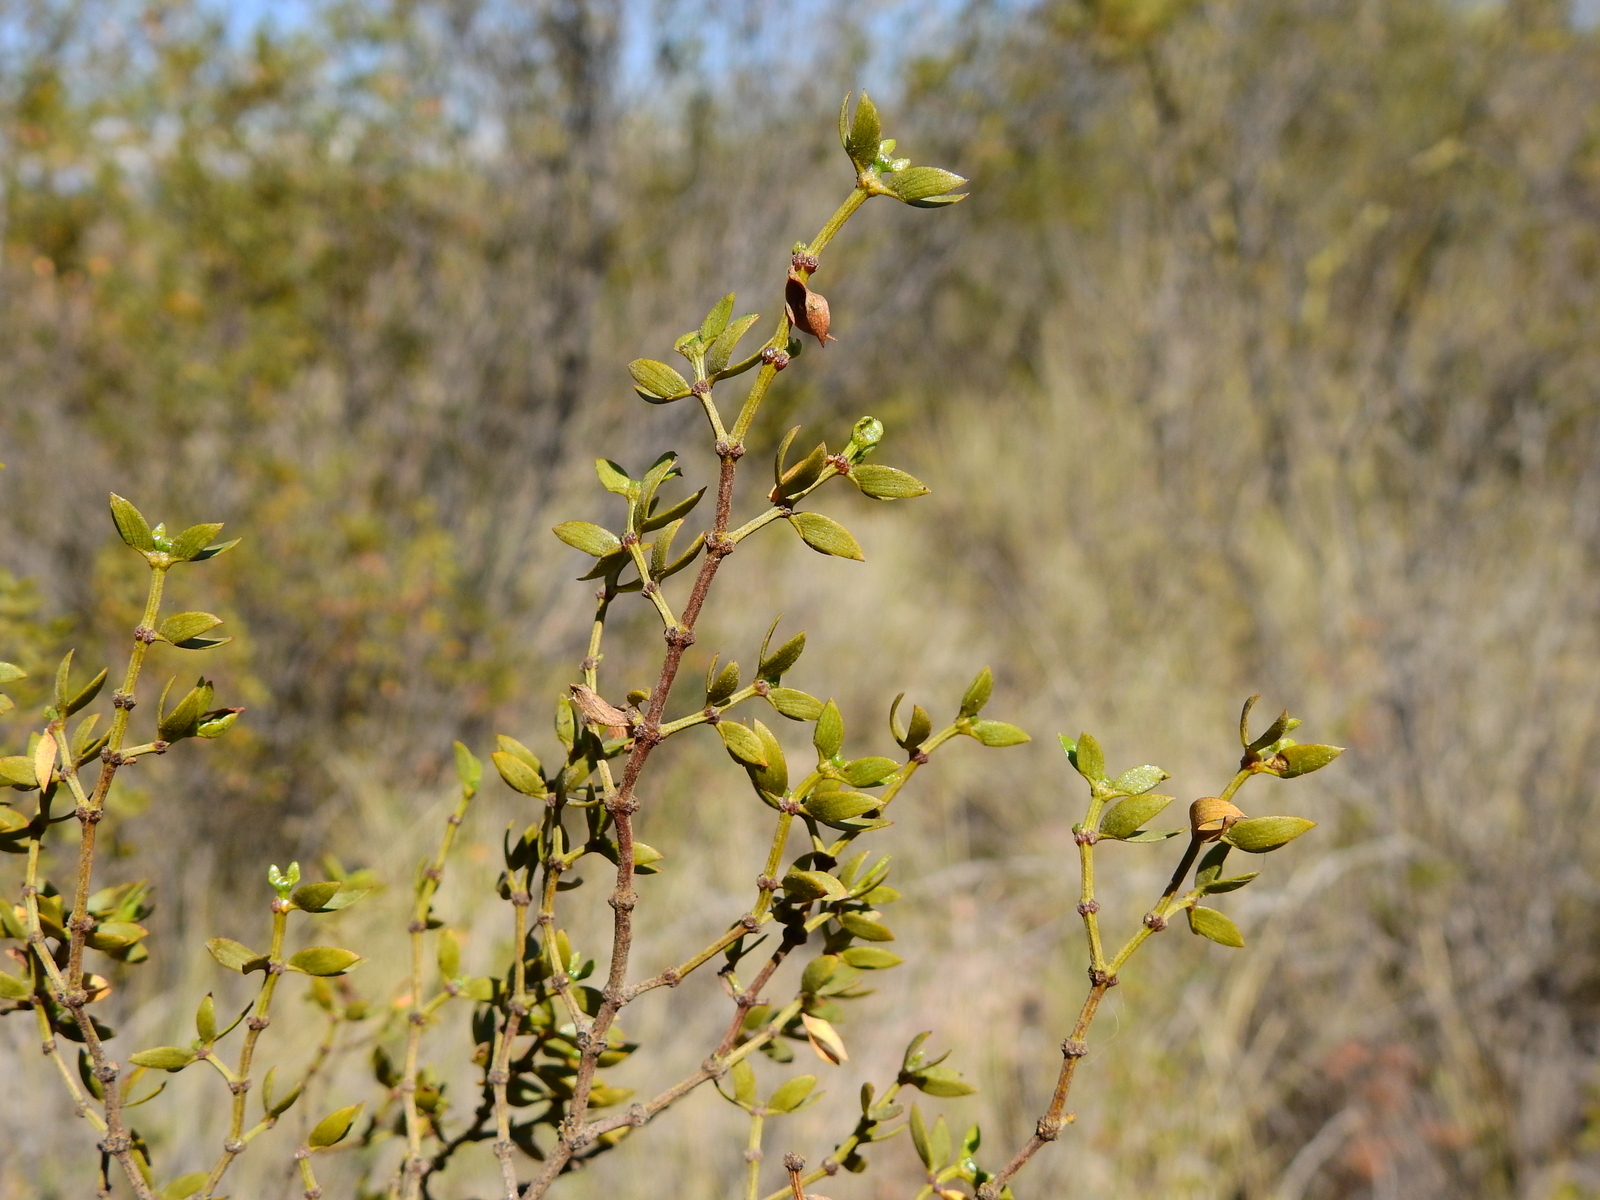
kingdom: Plantae
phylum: Tracheophyta
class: Magnoliopsida
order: Zygophyllales
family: Zygophyllaceae
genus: Larrea
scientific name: Larrea divaricata
